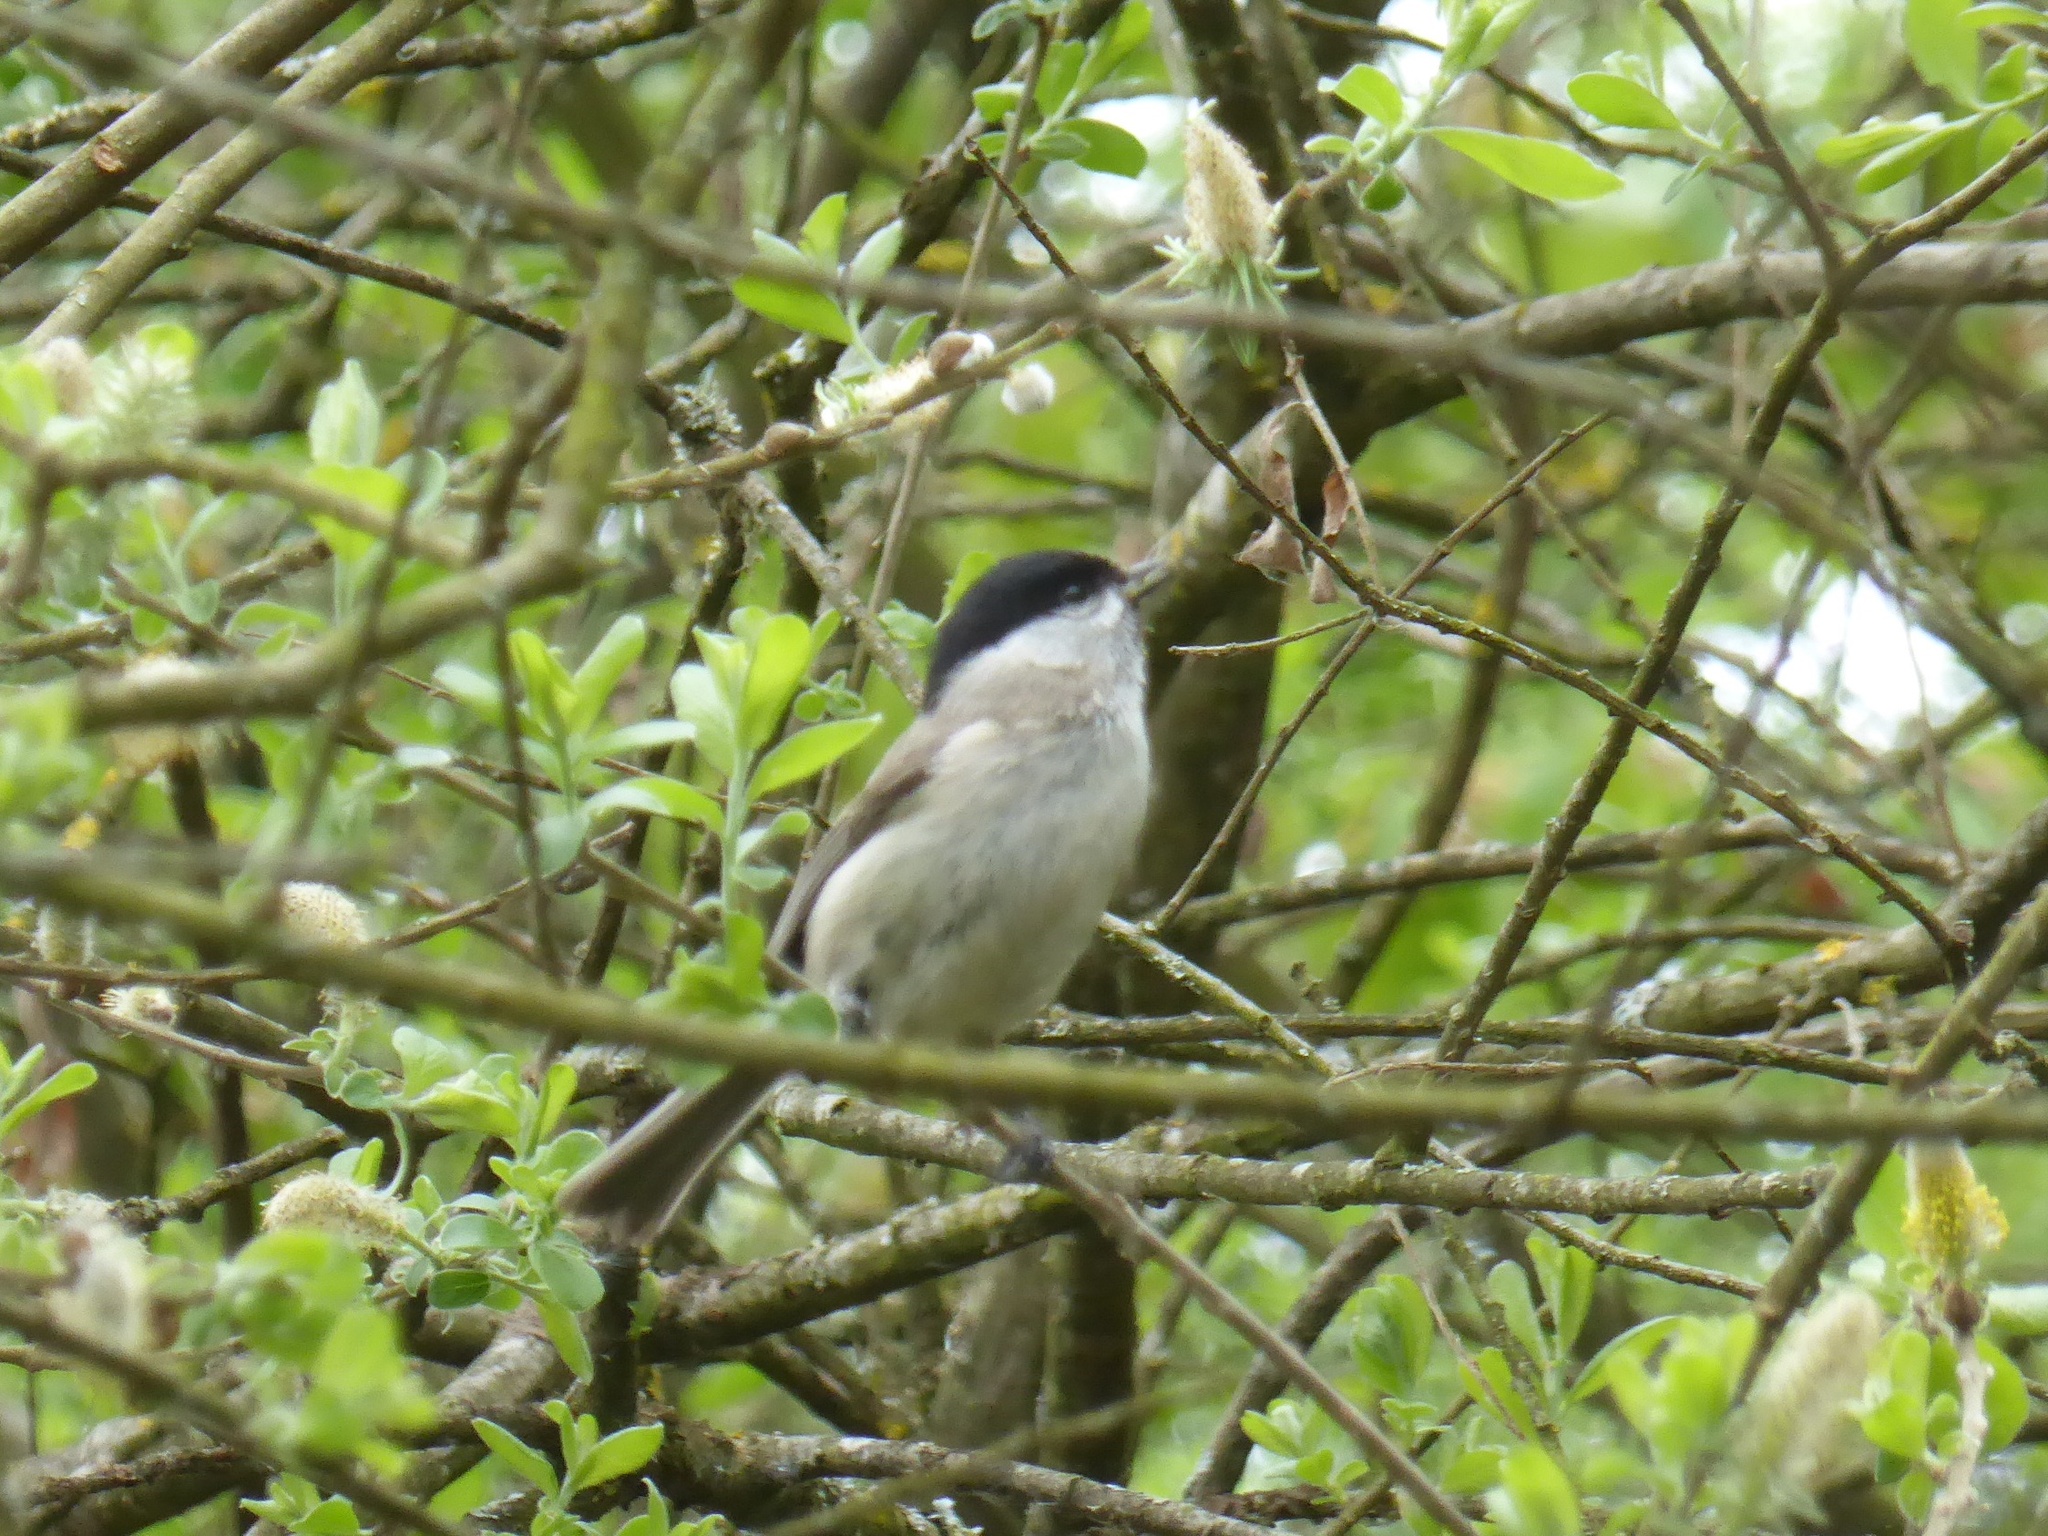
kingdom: Animalia
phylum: Chordata
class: Aves
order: Passeriformes
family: Paridae
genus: Poecile
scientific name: Poecile palustris
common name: Marsh tit
